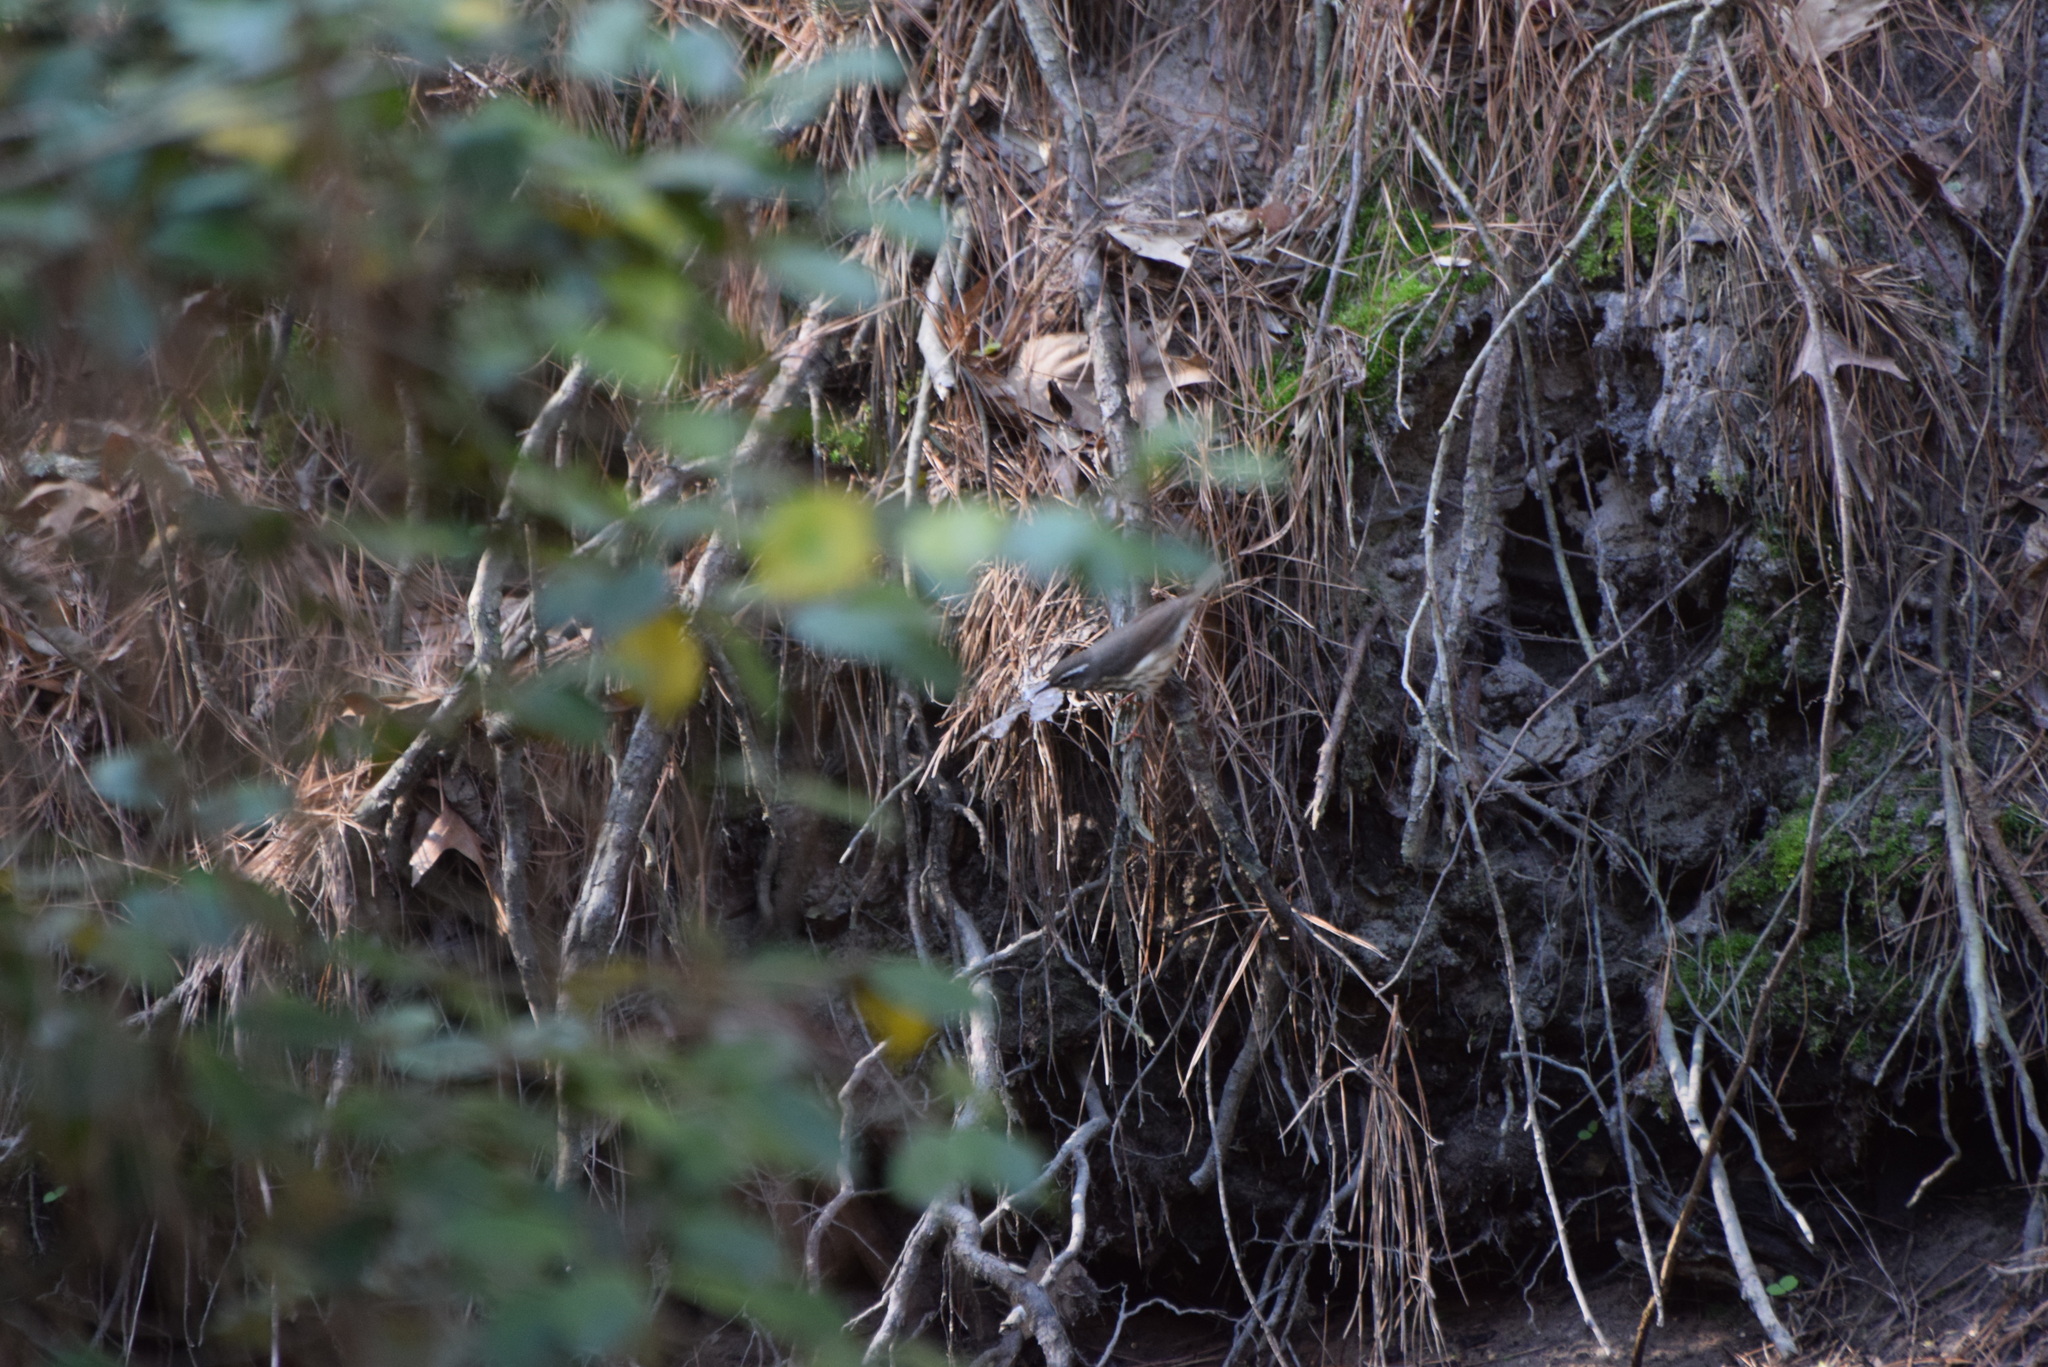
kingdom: Animalia
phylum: Chordata
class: Aves
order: Passeriformes
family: Parulidae
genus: Parkesia
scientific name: Parkesia motacilla
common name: Louisiana waterthrush
